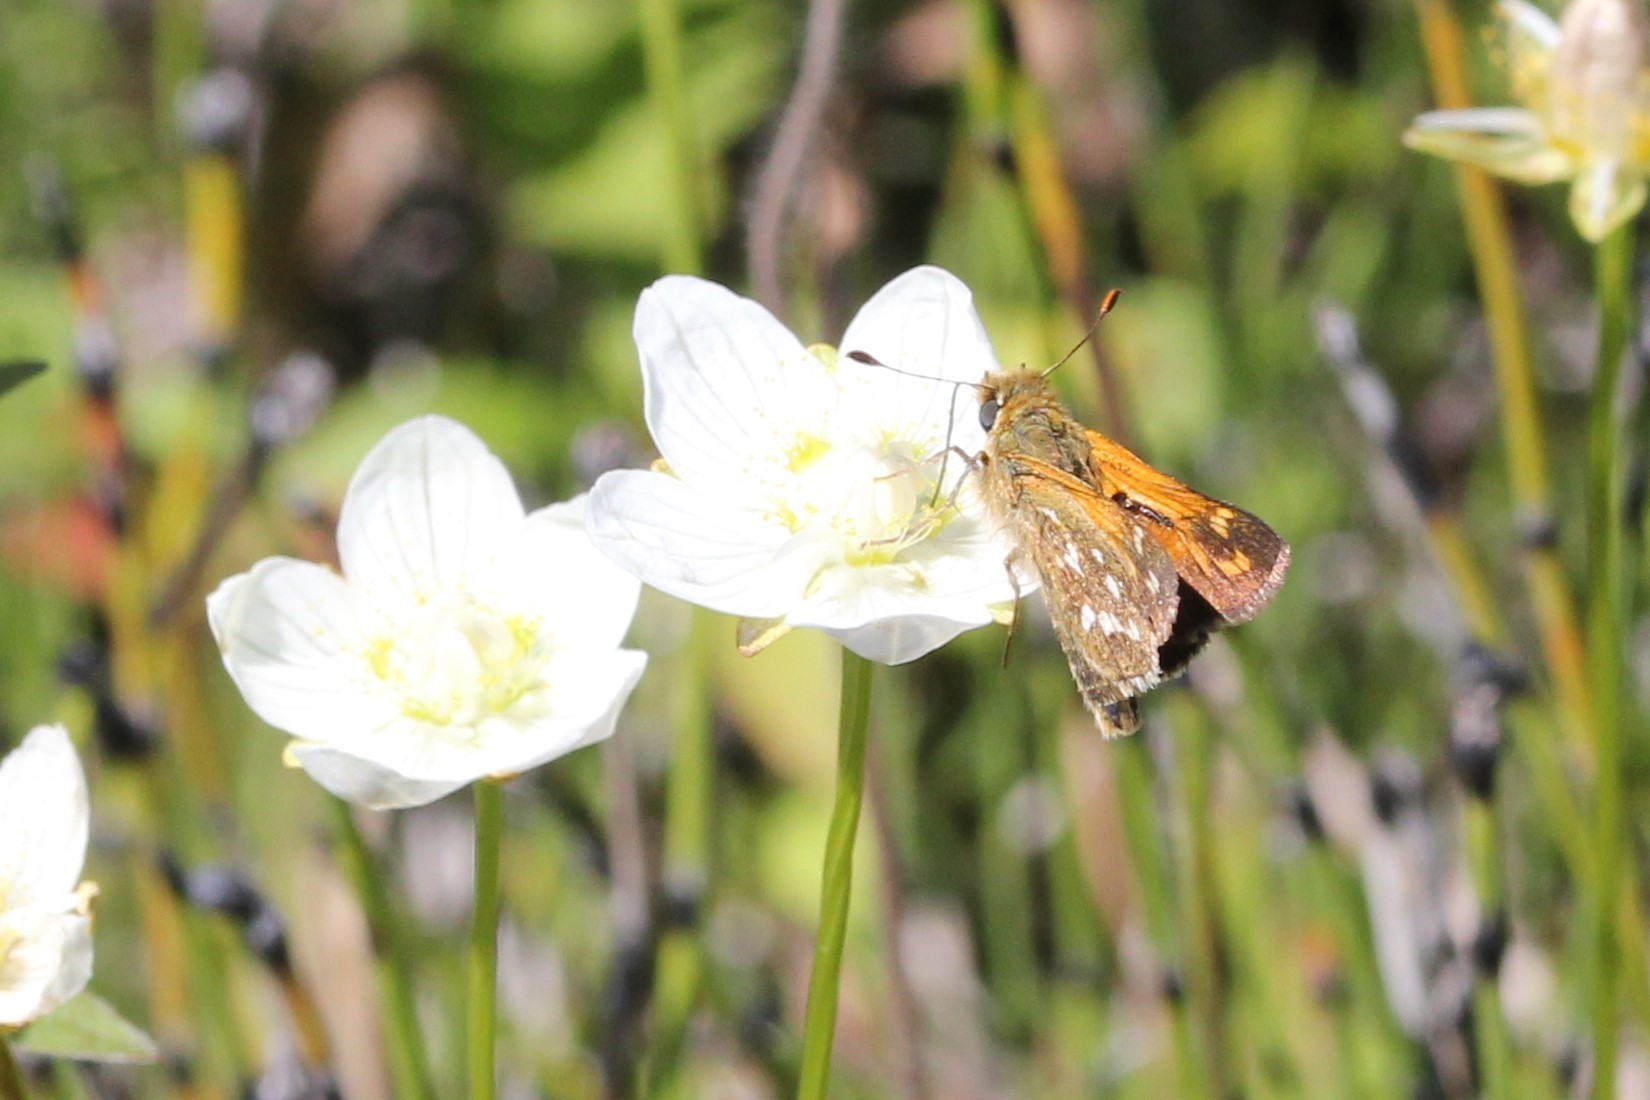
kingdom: Animalia
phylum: Arthropoda
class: Insecta
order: Lepidoptera
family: Hesperiidae
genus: Hesperia
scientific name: Hesperia comma
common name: Common branded skipper
